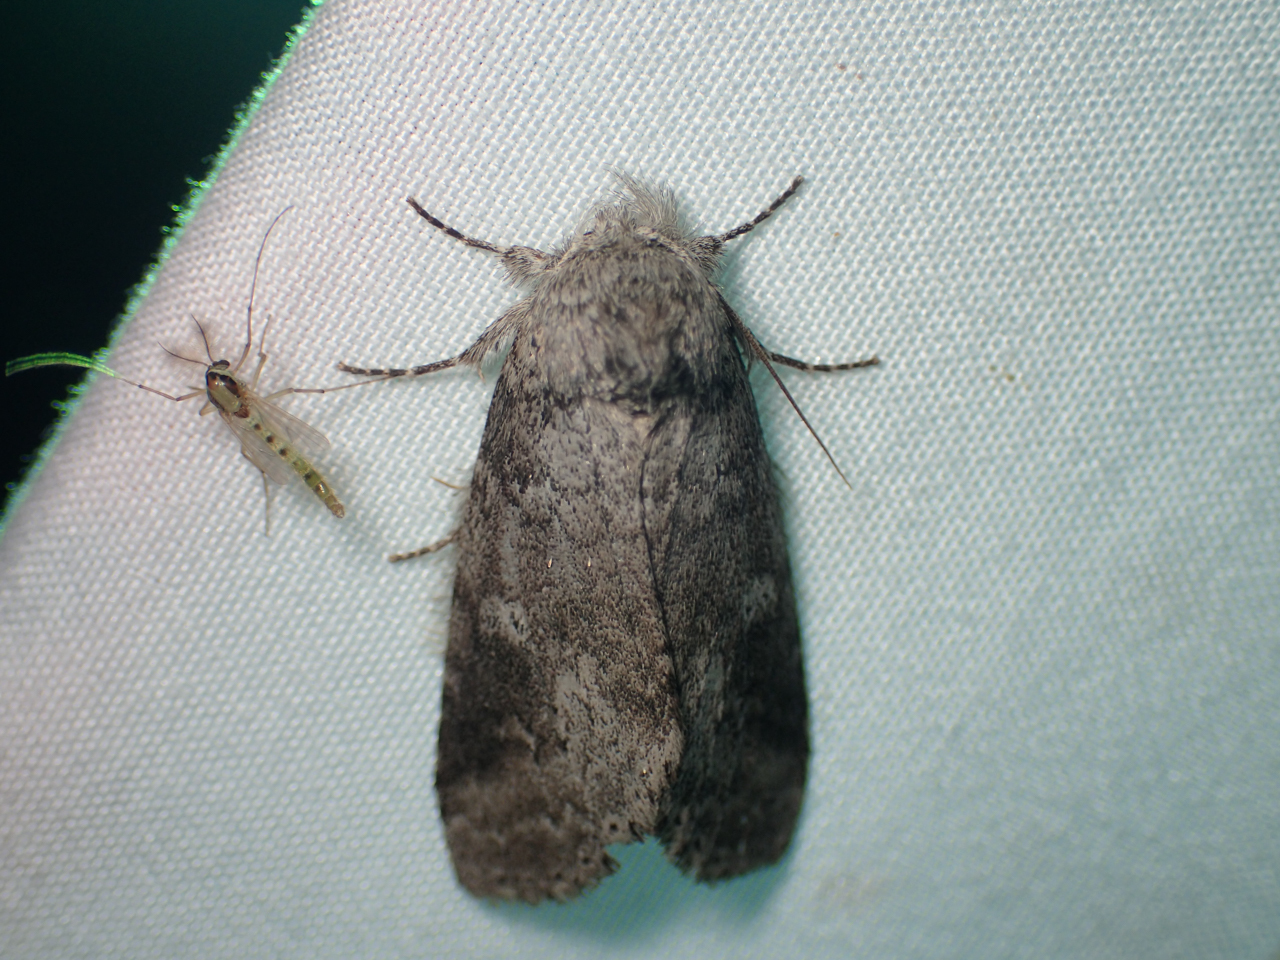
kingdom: Animalia
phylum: Arthropoda
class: Insecta
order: Lepidoptera
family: Notodontidae
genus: Lochmaeus
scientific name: Lochmaeus manteo
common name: Variable oakleaf caterpillar moth
